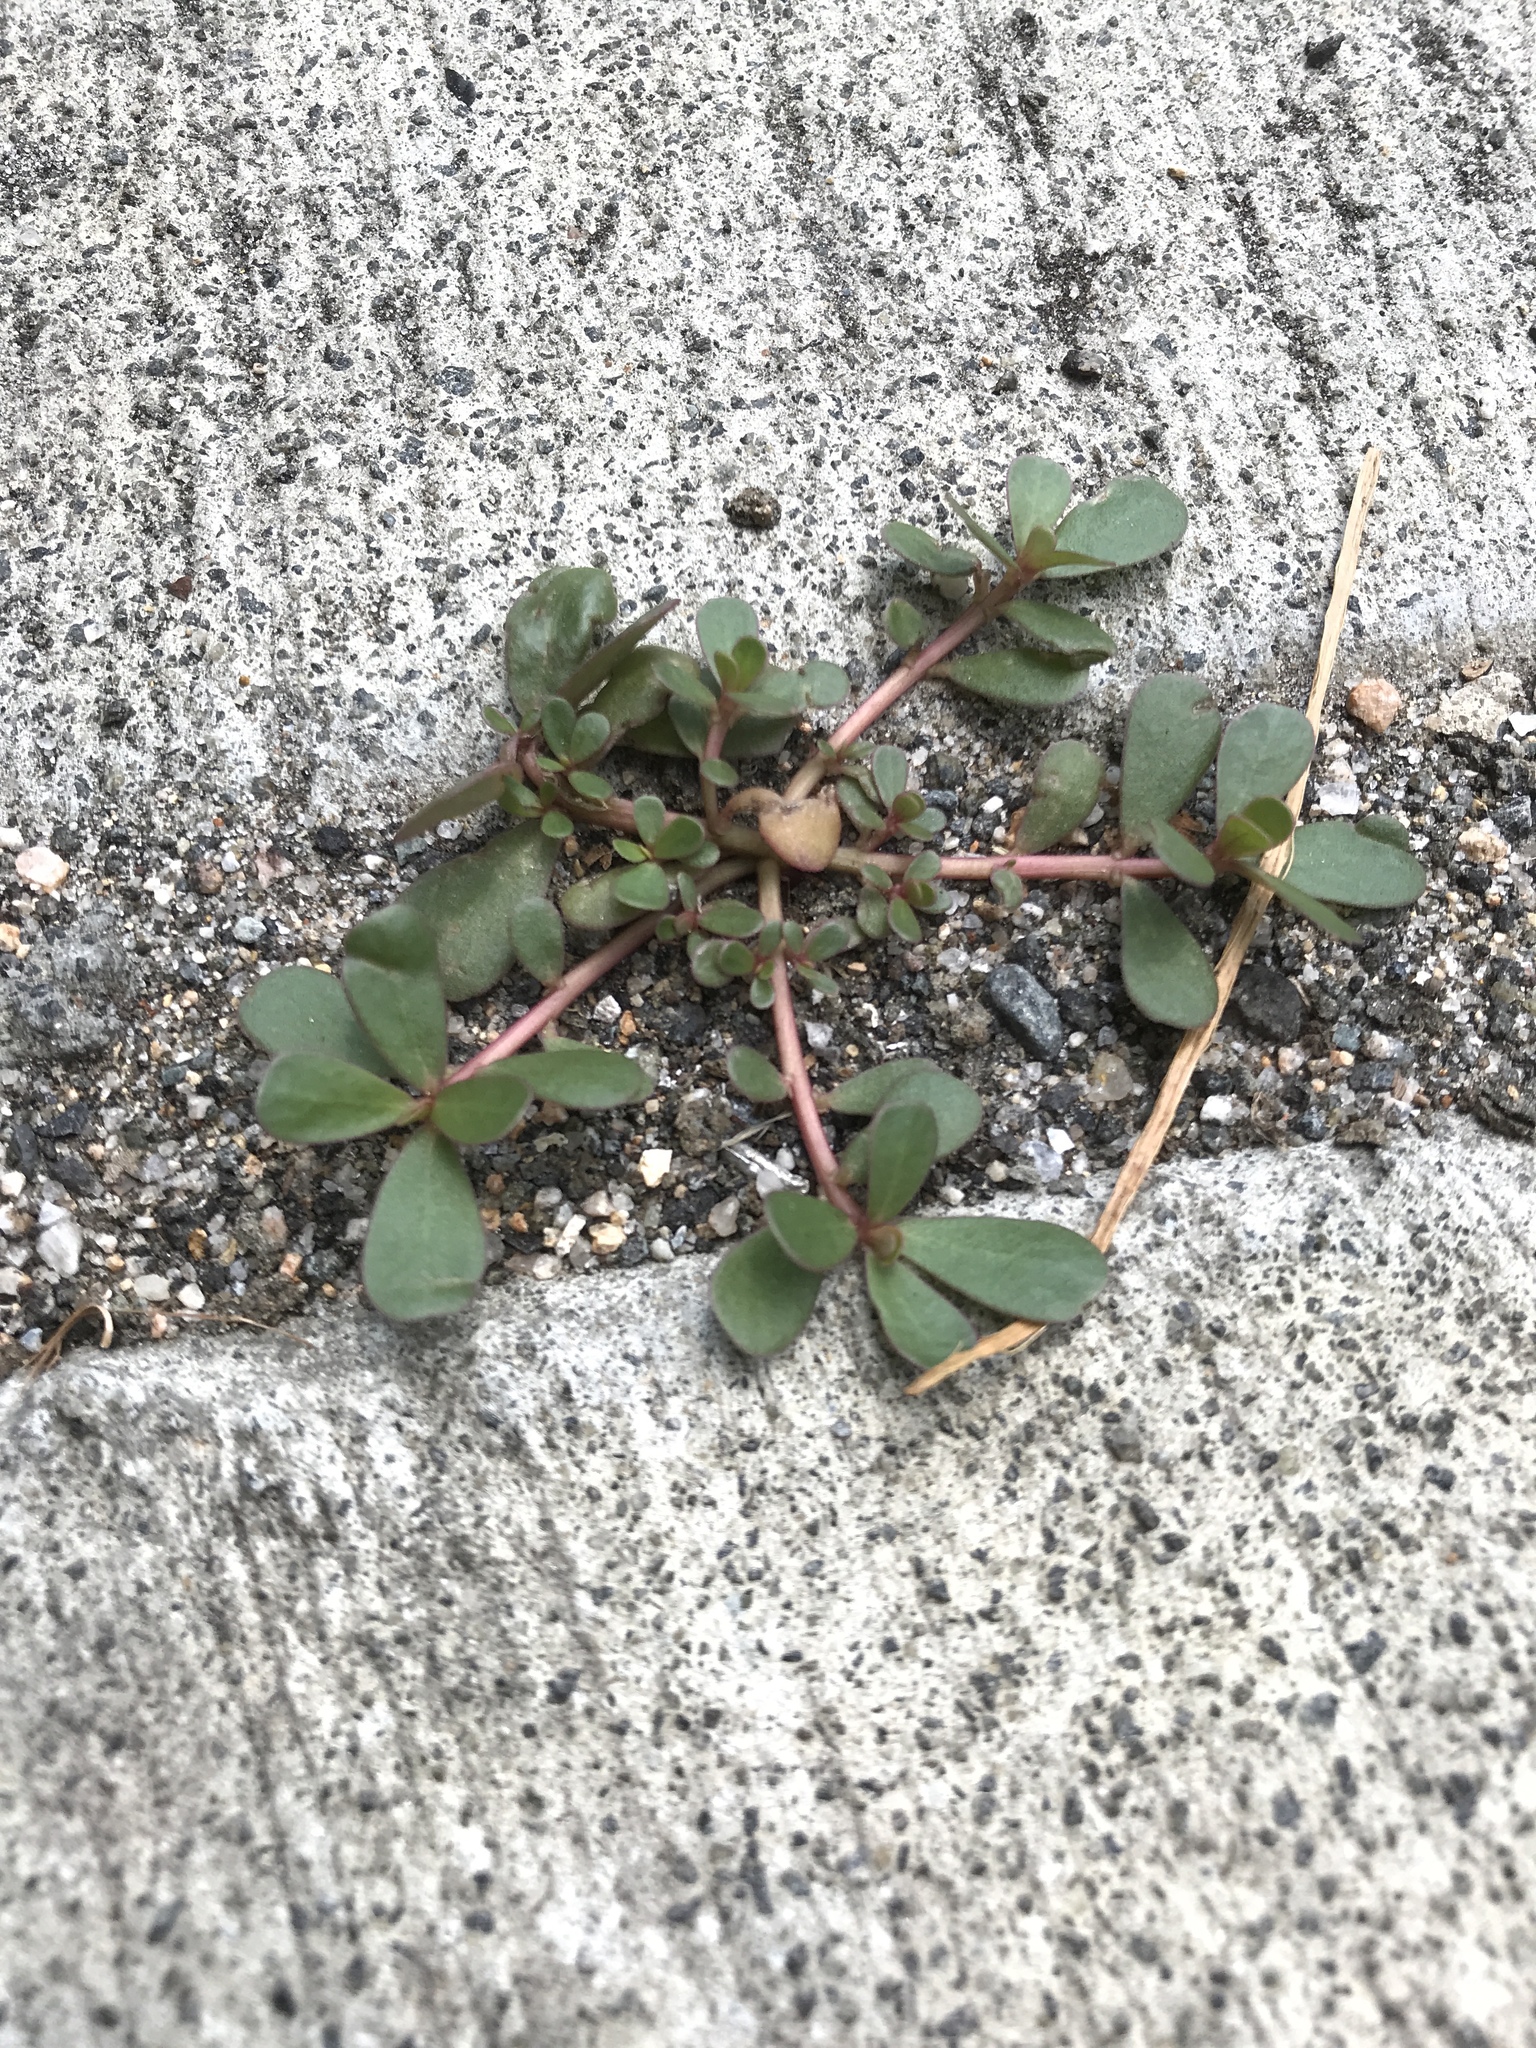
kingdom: Plantae
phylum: Tracheophyta
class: Magnoliopsida
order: Caryophyllales
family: Portulacaceae
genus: Portulaca
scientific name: Portulaca oleracea
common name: Common purslane
